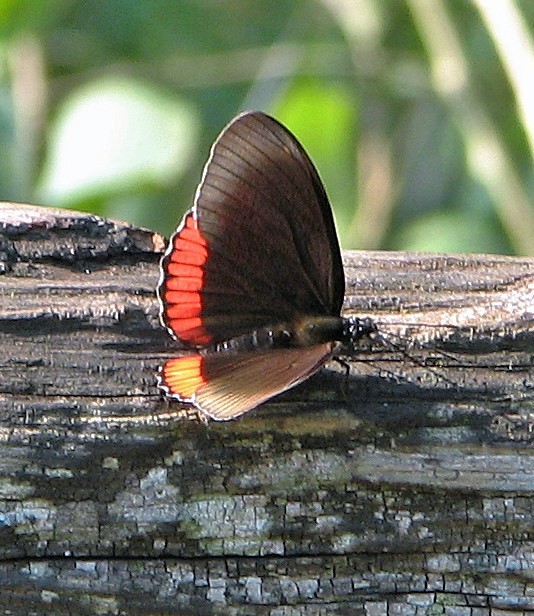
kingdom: Animalia
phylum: Arthropoda
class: Insecta
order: Lepidoptera
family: Sesiidae
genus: Sesia
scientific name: Sesia Biblis hyperia
